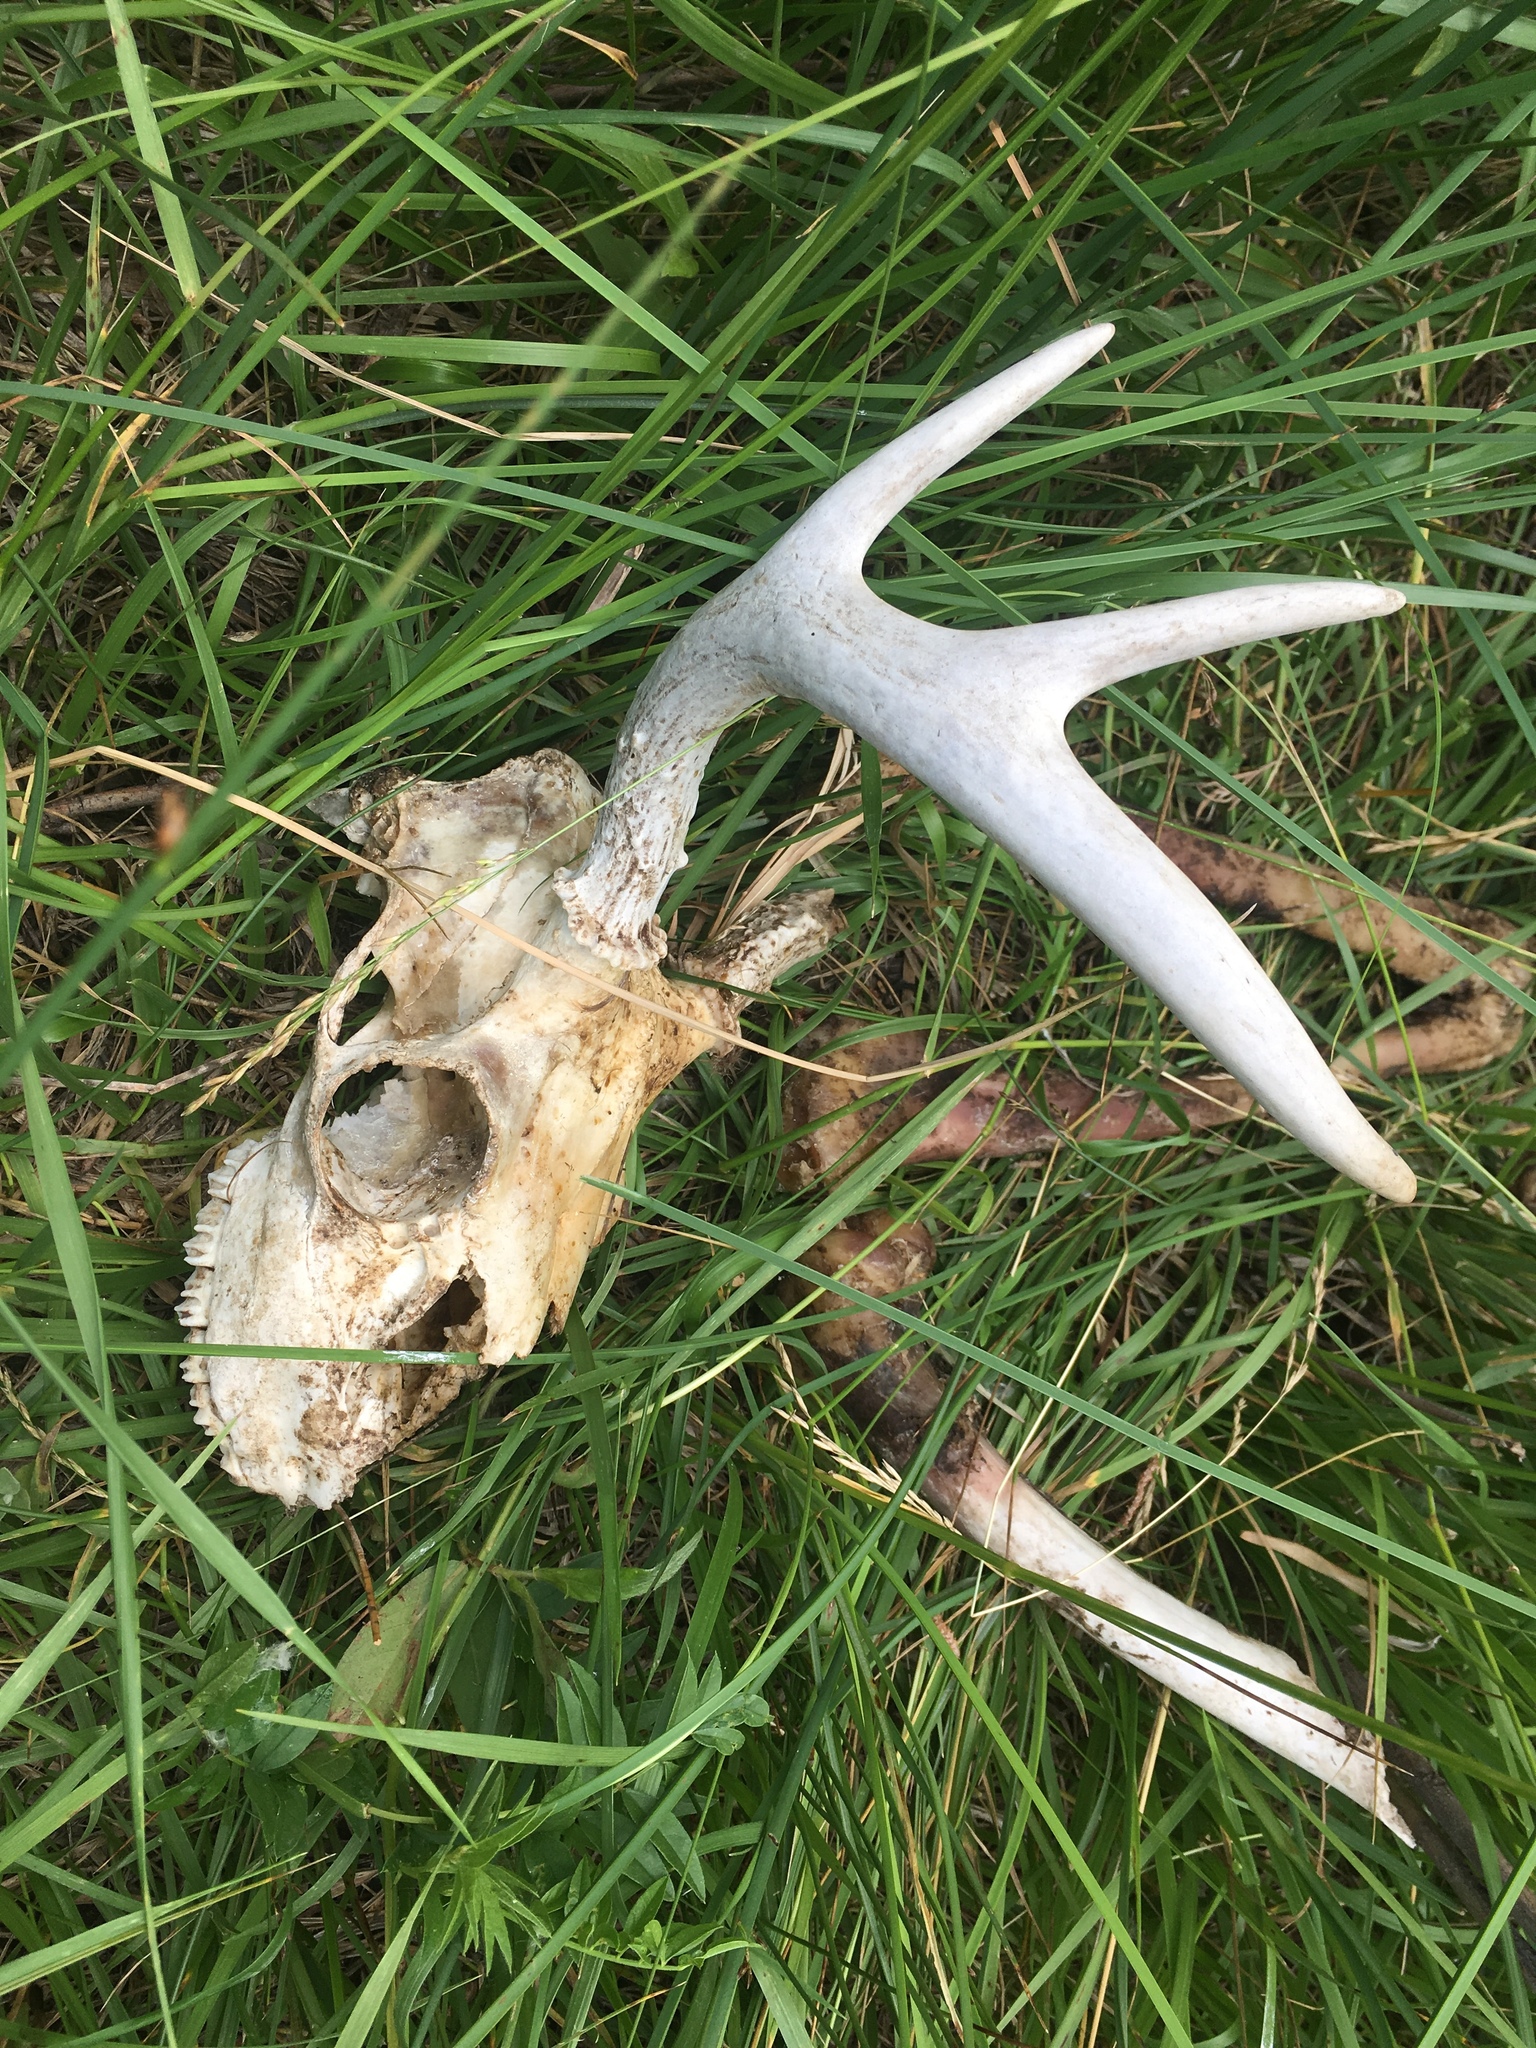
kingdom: Animalia
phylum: Chordata
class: Mammalia
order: Artiodactyla
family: Cervidae
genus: Odocoileus
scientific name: Odocoileus virginianus
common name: White-tailed deer
